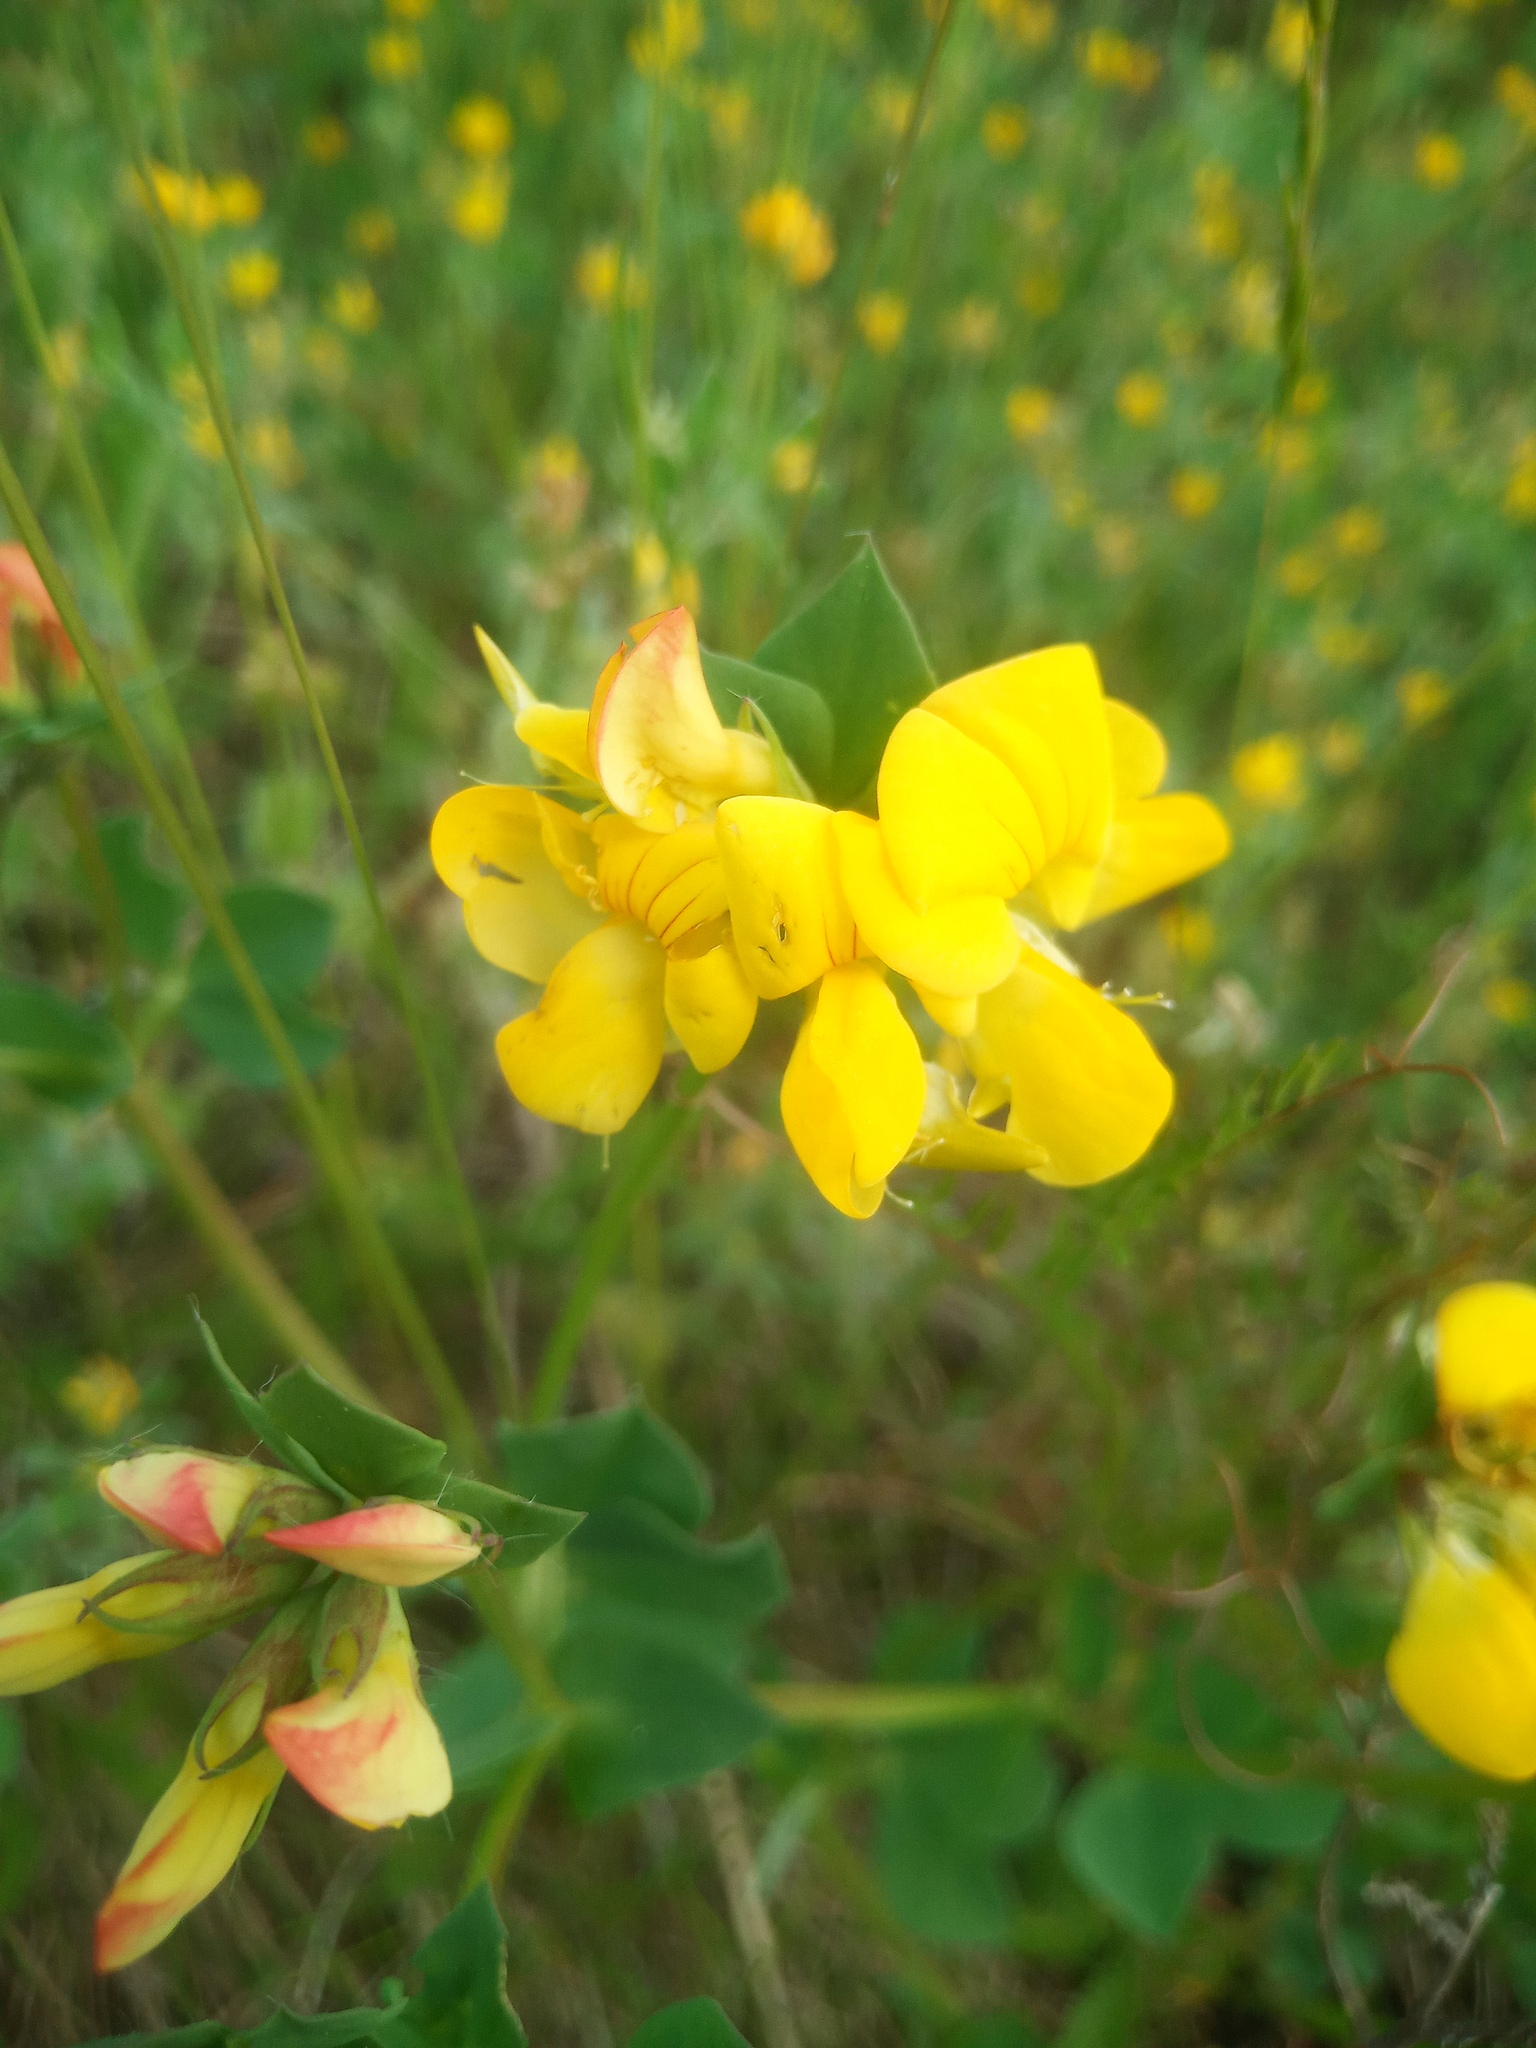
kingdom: Plantae
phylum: Tracheophyta
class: Magnoliopsida
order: Fabales
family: Fabaceae
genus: Lotus
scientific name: Lotus corniculatus
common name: Common bird's-foot-trefoil
